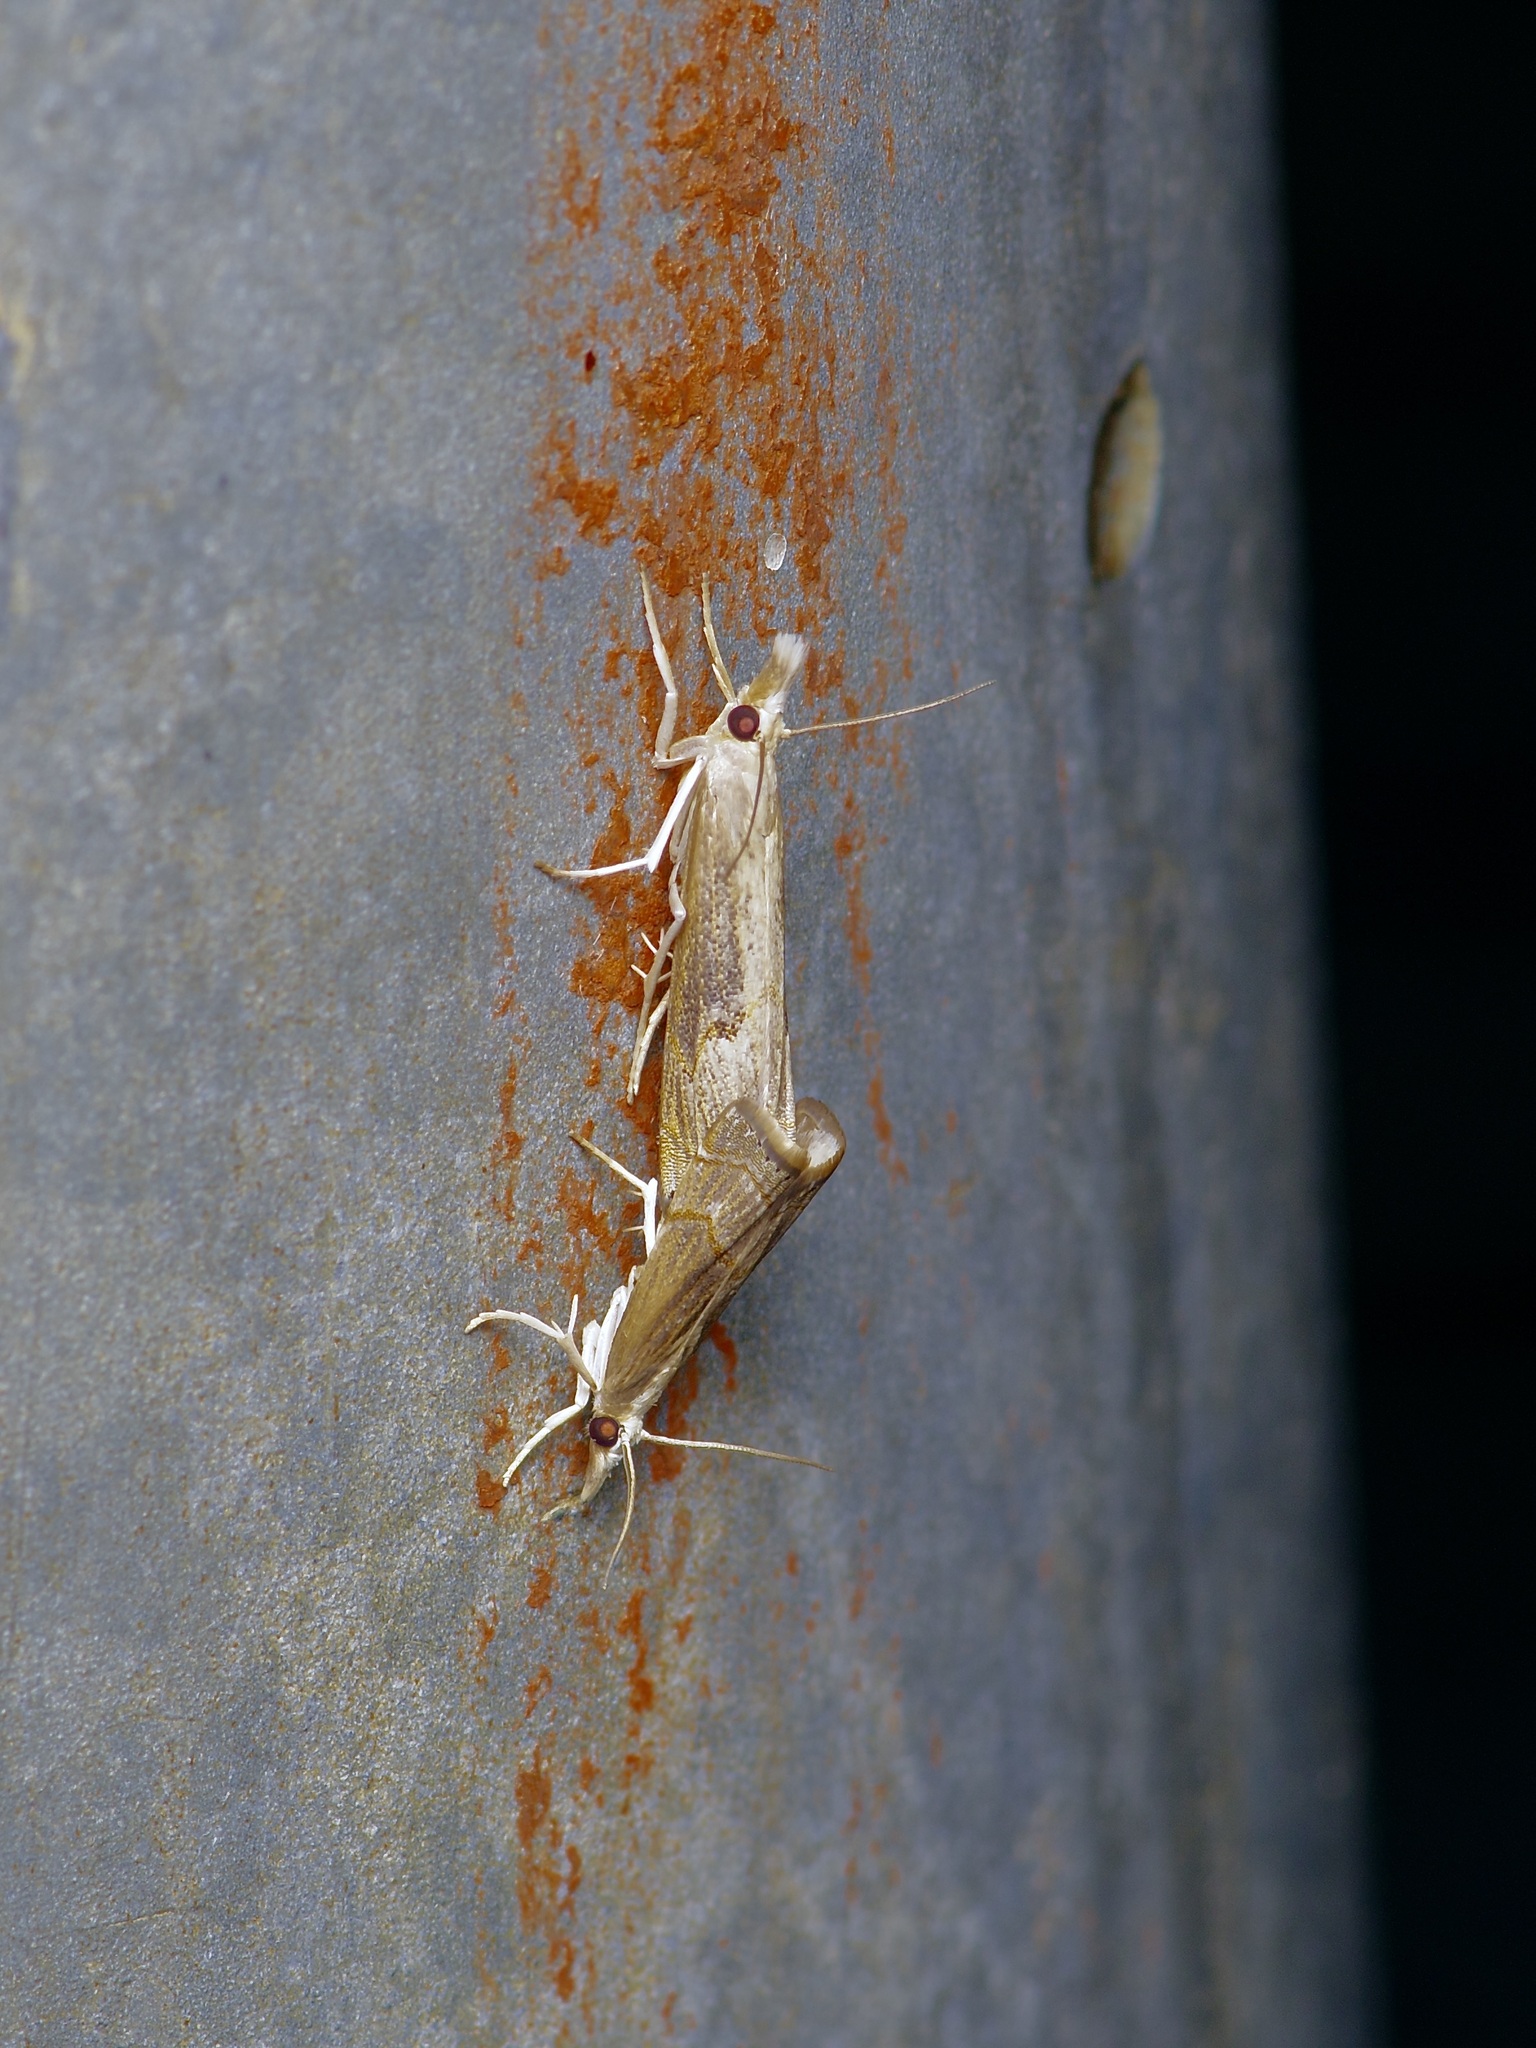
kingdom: Animalia
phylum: Arthropoda
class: Insecta
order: Lepidoptera
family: Crambidae
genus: Parapediasia
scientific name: Parapediasia teterellus
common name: Bluegrass webworm moth
